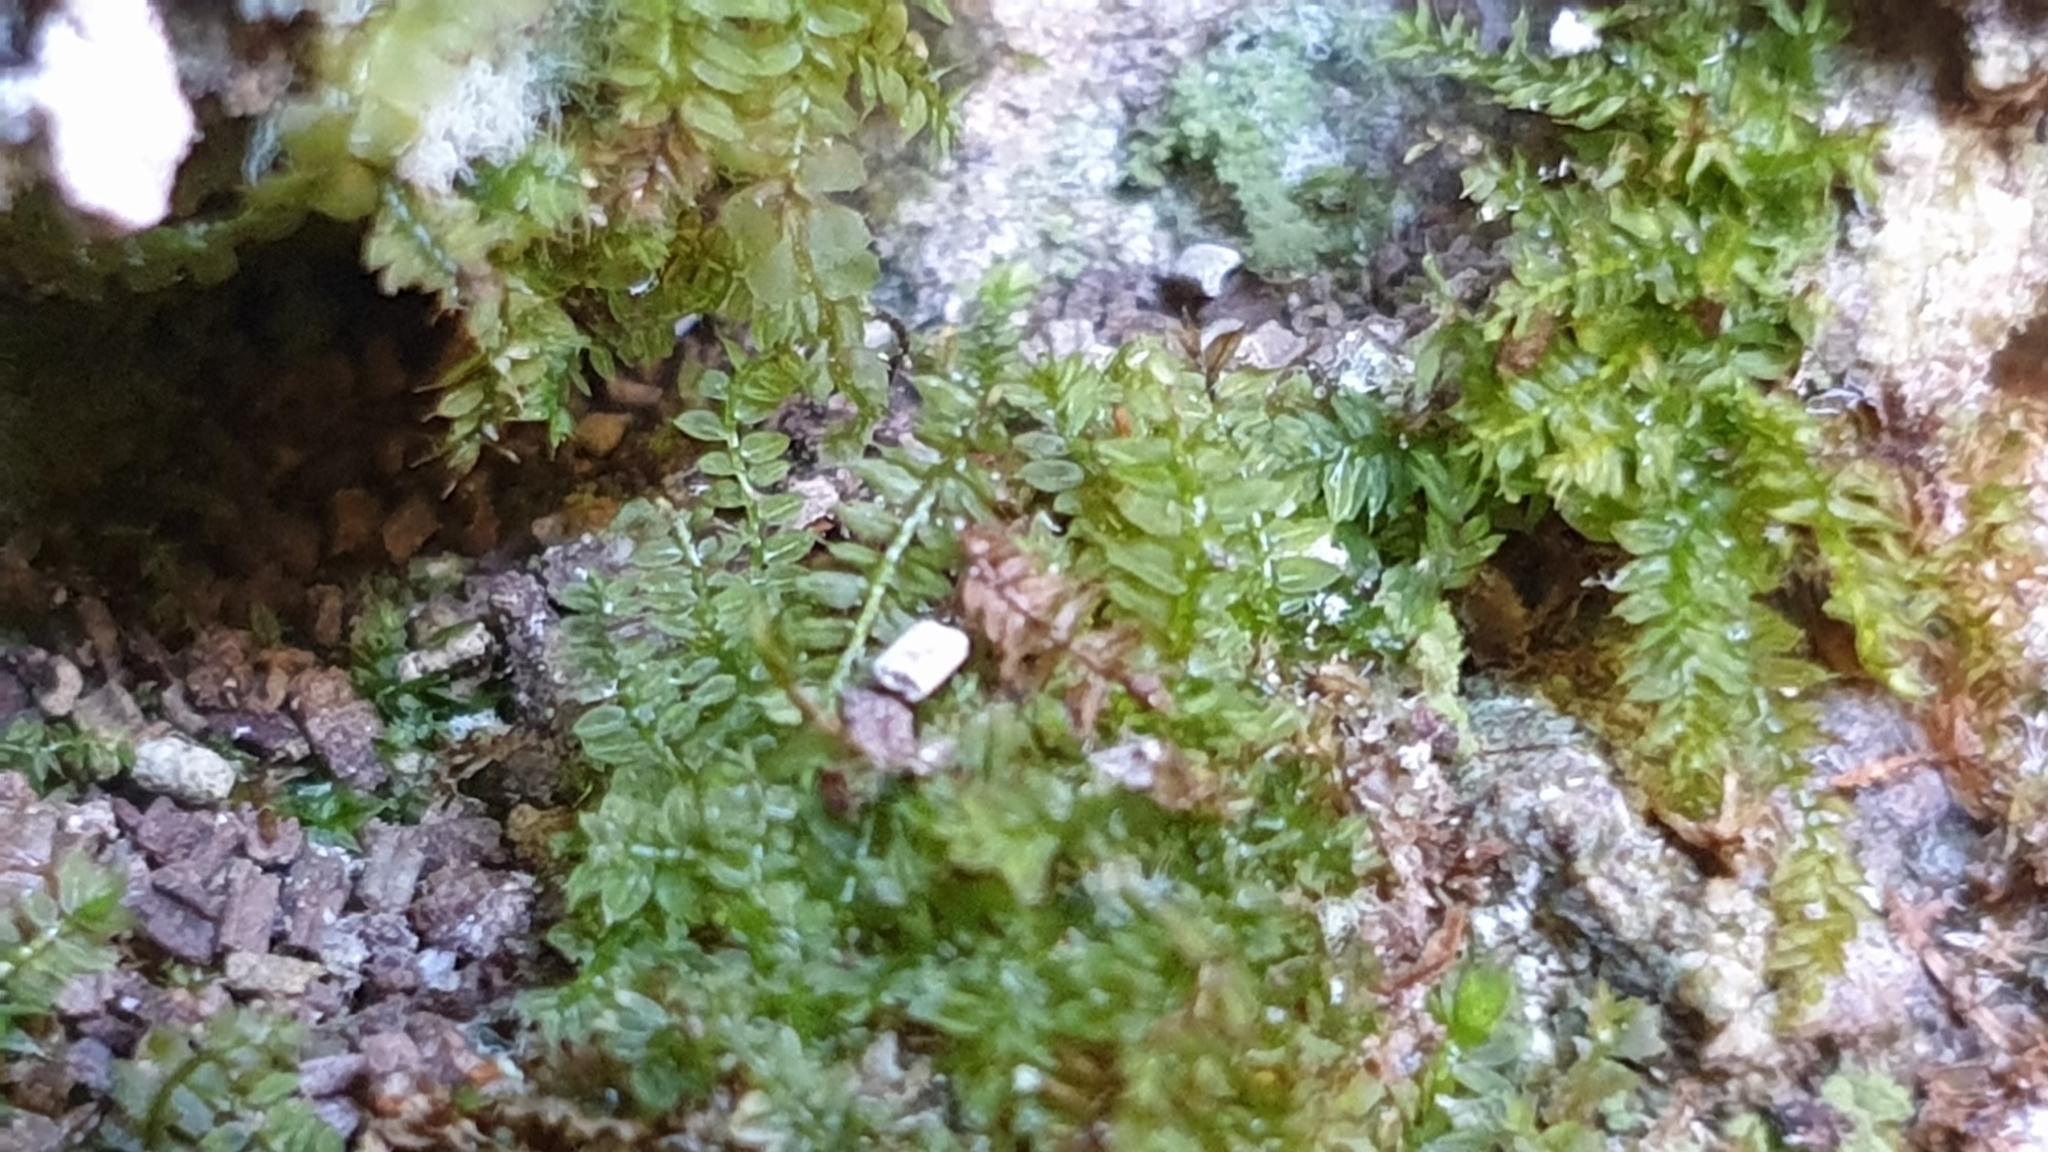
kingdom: Plantae
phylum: Bryophyta
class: Bryopsida
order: Hypnodendrales
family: Racopilaceae
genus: Racopilum
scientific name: Racopilum cuspidigerum
